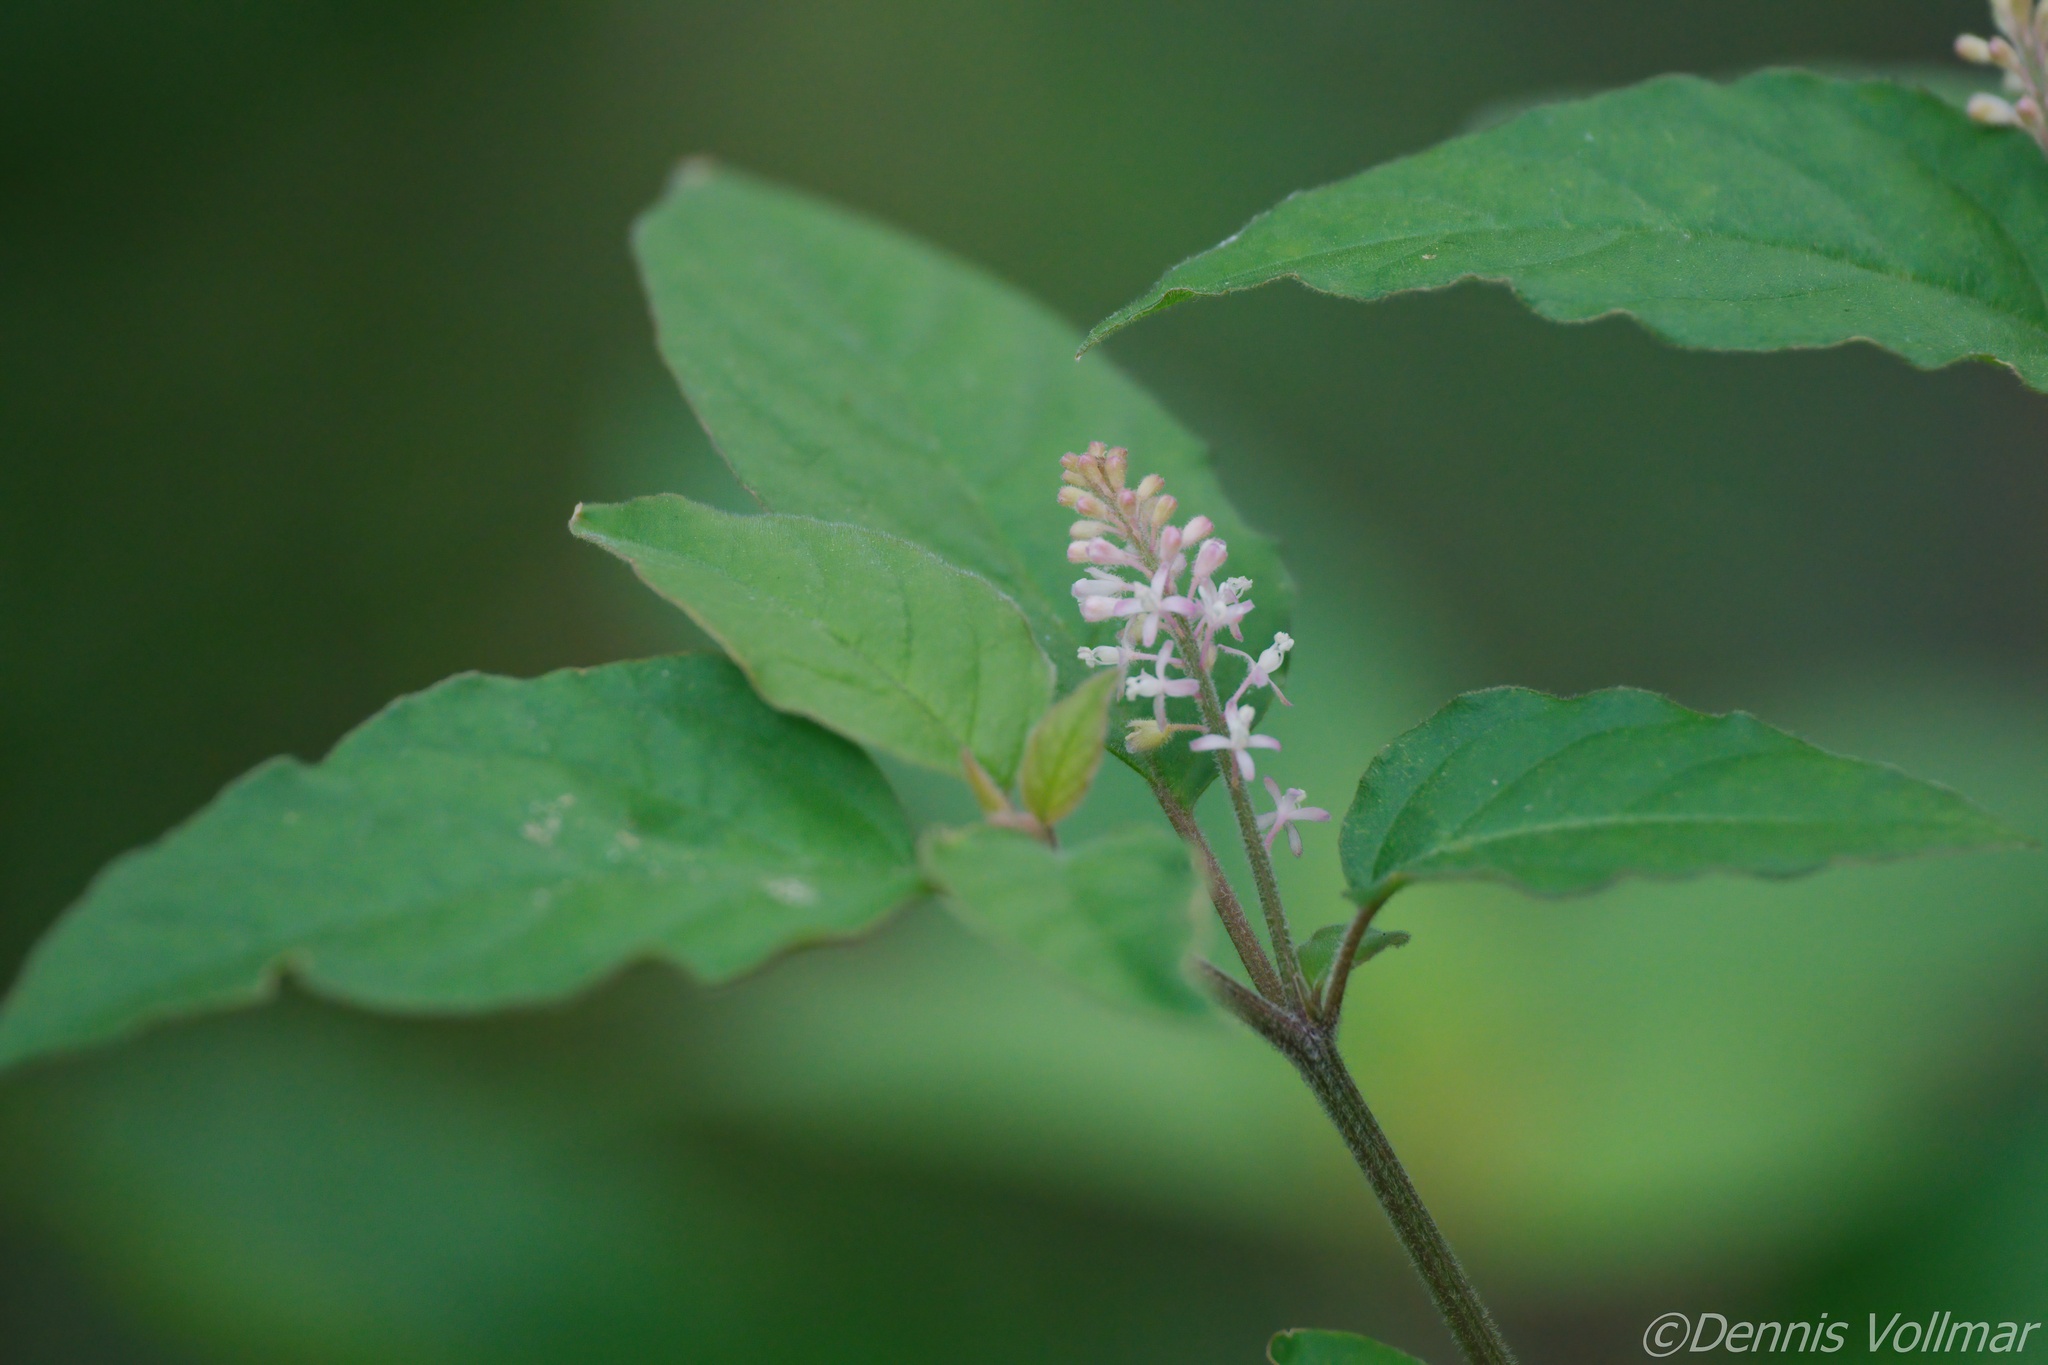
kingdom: Plantae
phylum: Tracheophyta
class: Magnoliopsida
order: Caryophyllales
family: Phytolaccaceae
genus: Rivina
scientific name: Rivina humilis
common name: Rougeplant
